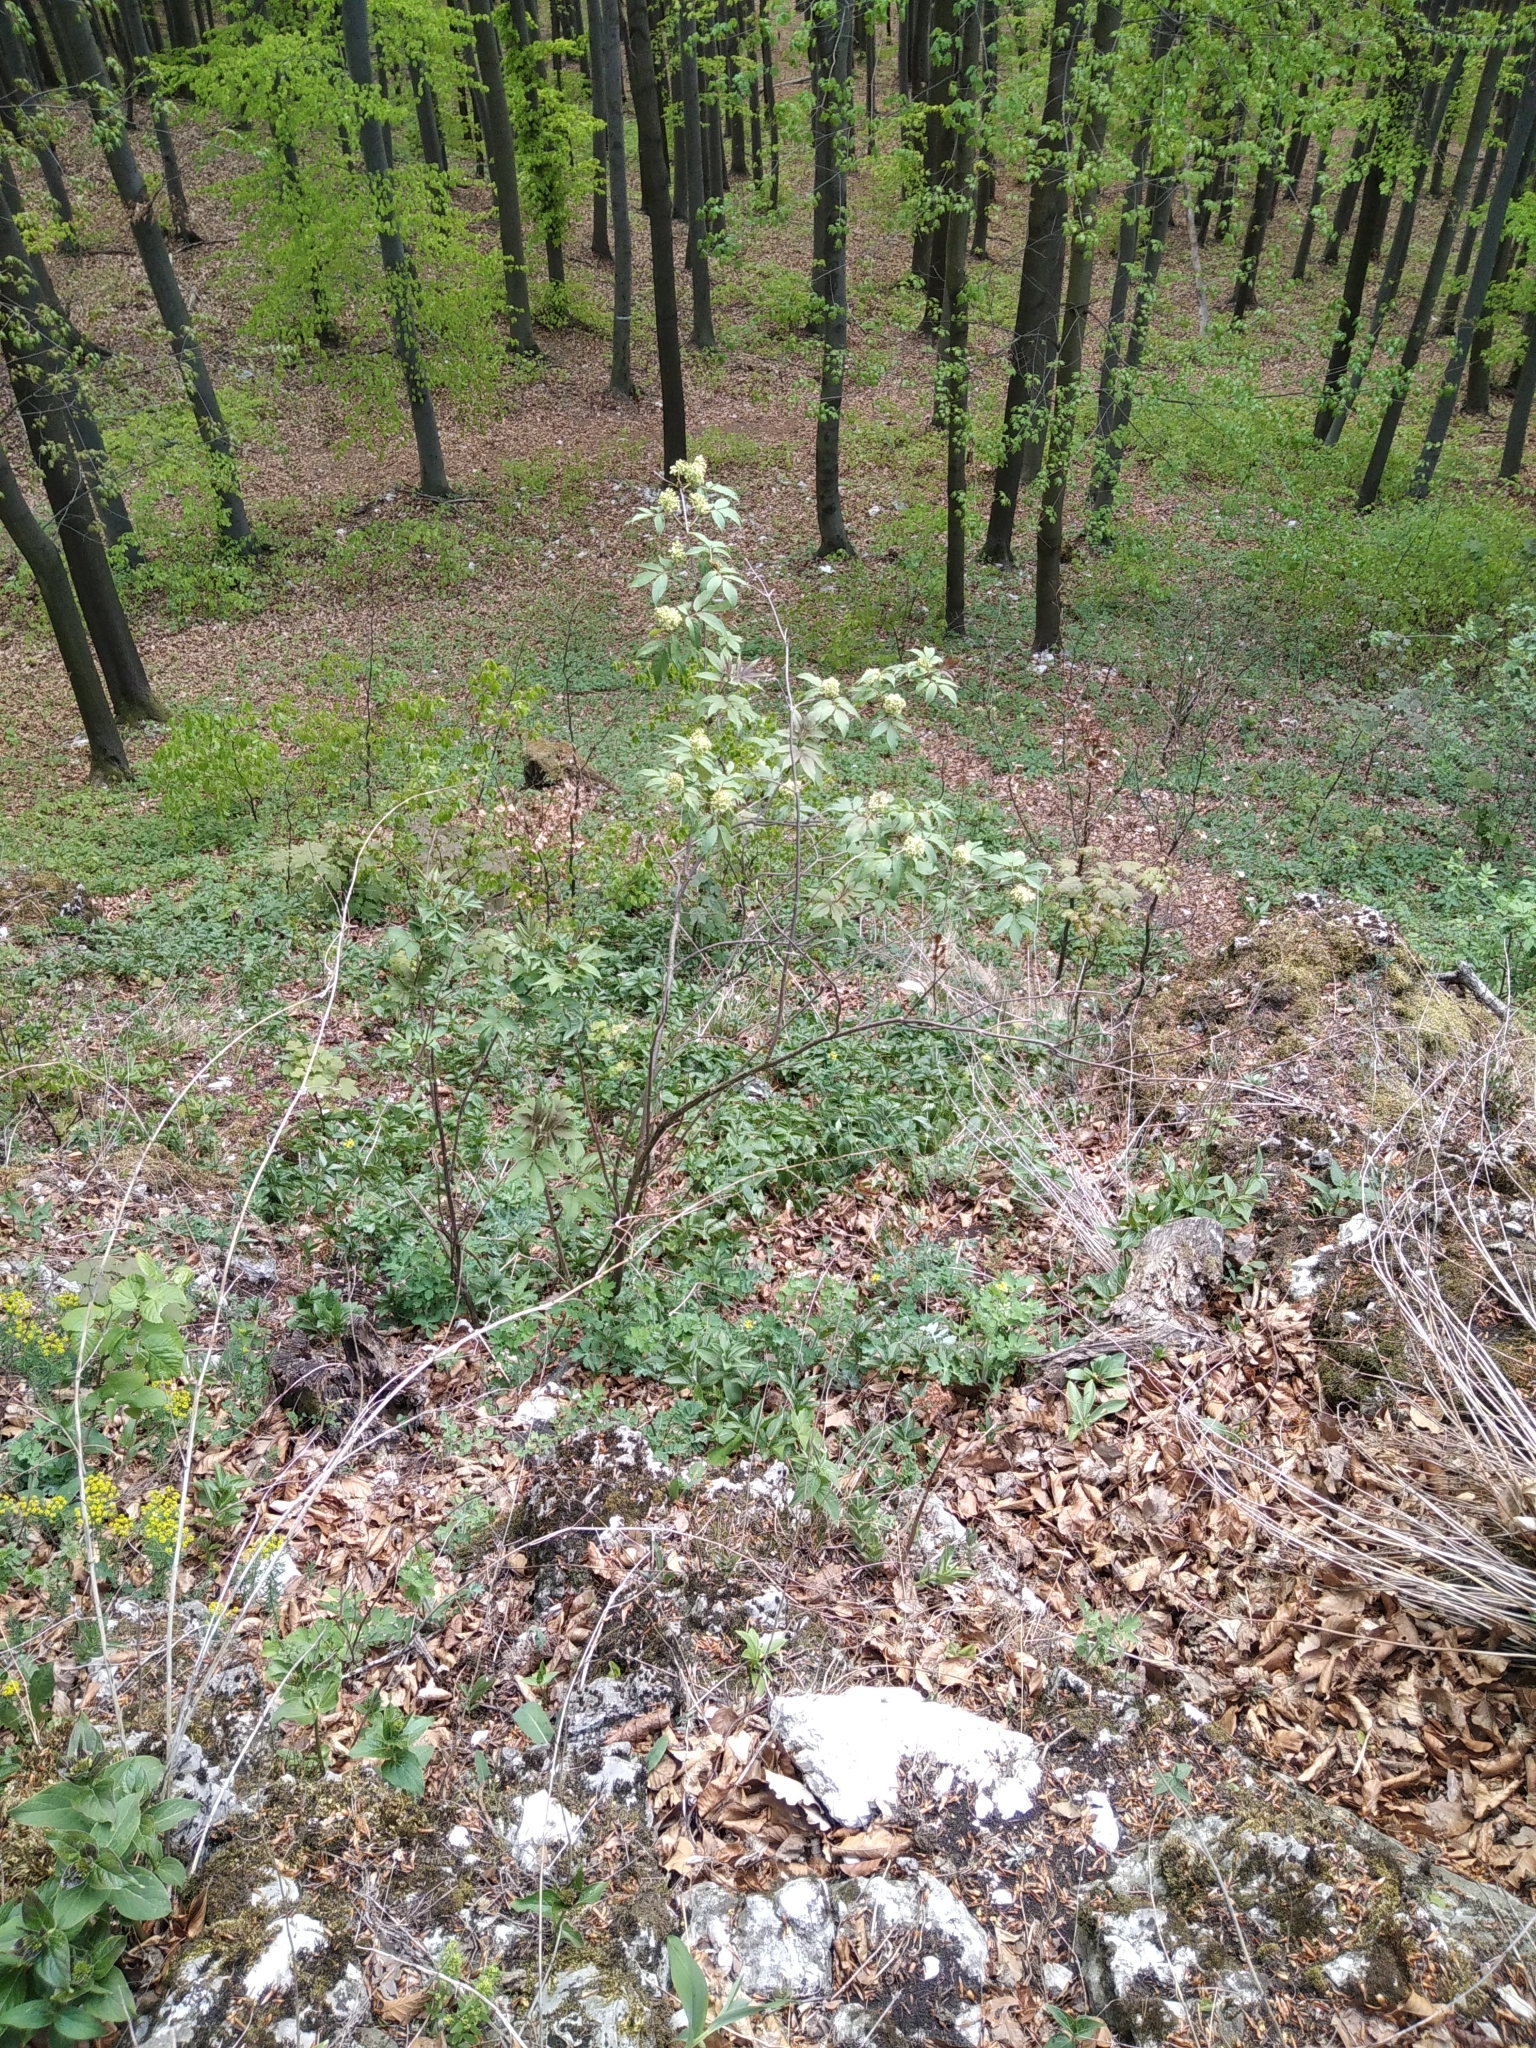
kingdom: Plantae
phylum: Tracheophyta
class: Magnoliopsida
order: Dipsacales
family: Viburnaceae
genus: Sambucus
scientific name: Sambucus racemosa
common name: Red-berried elder
